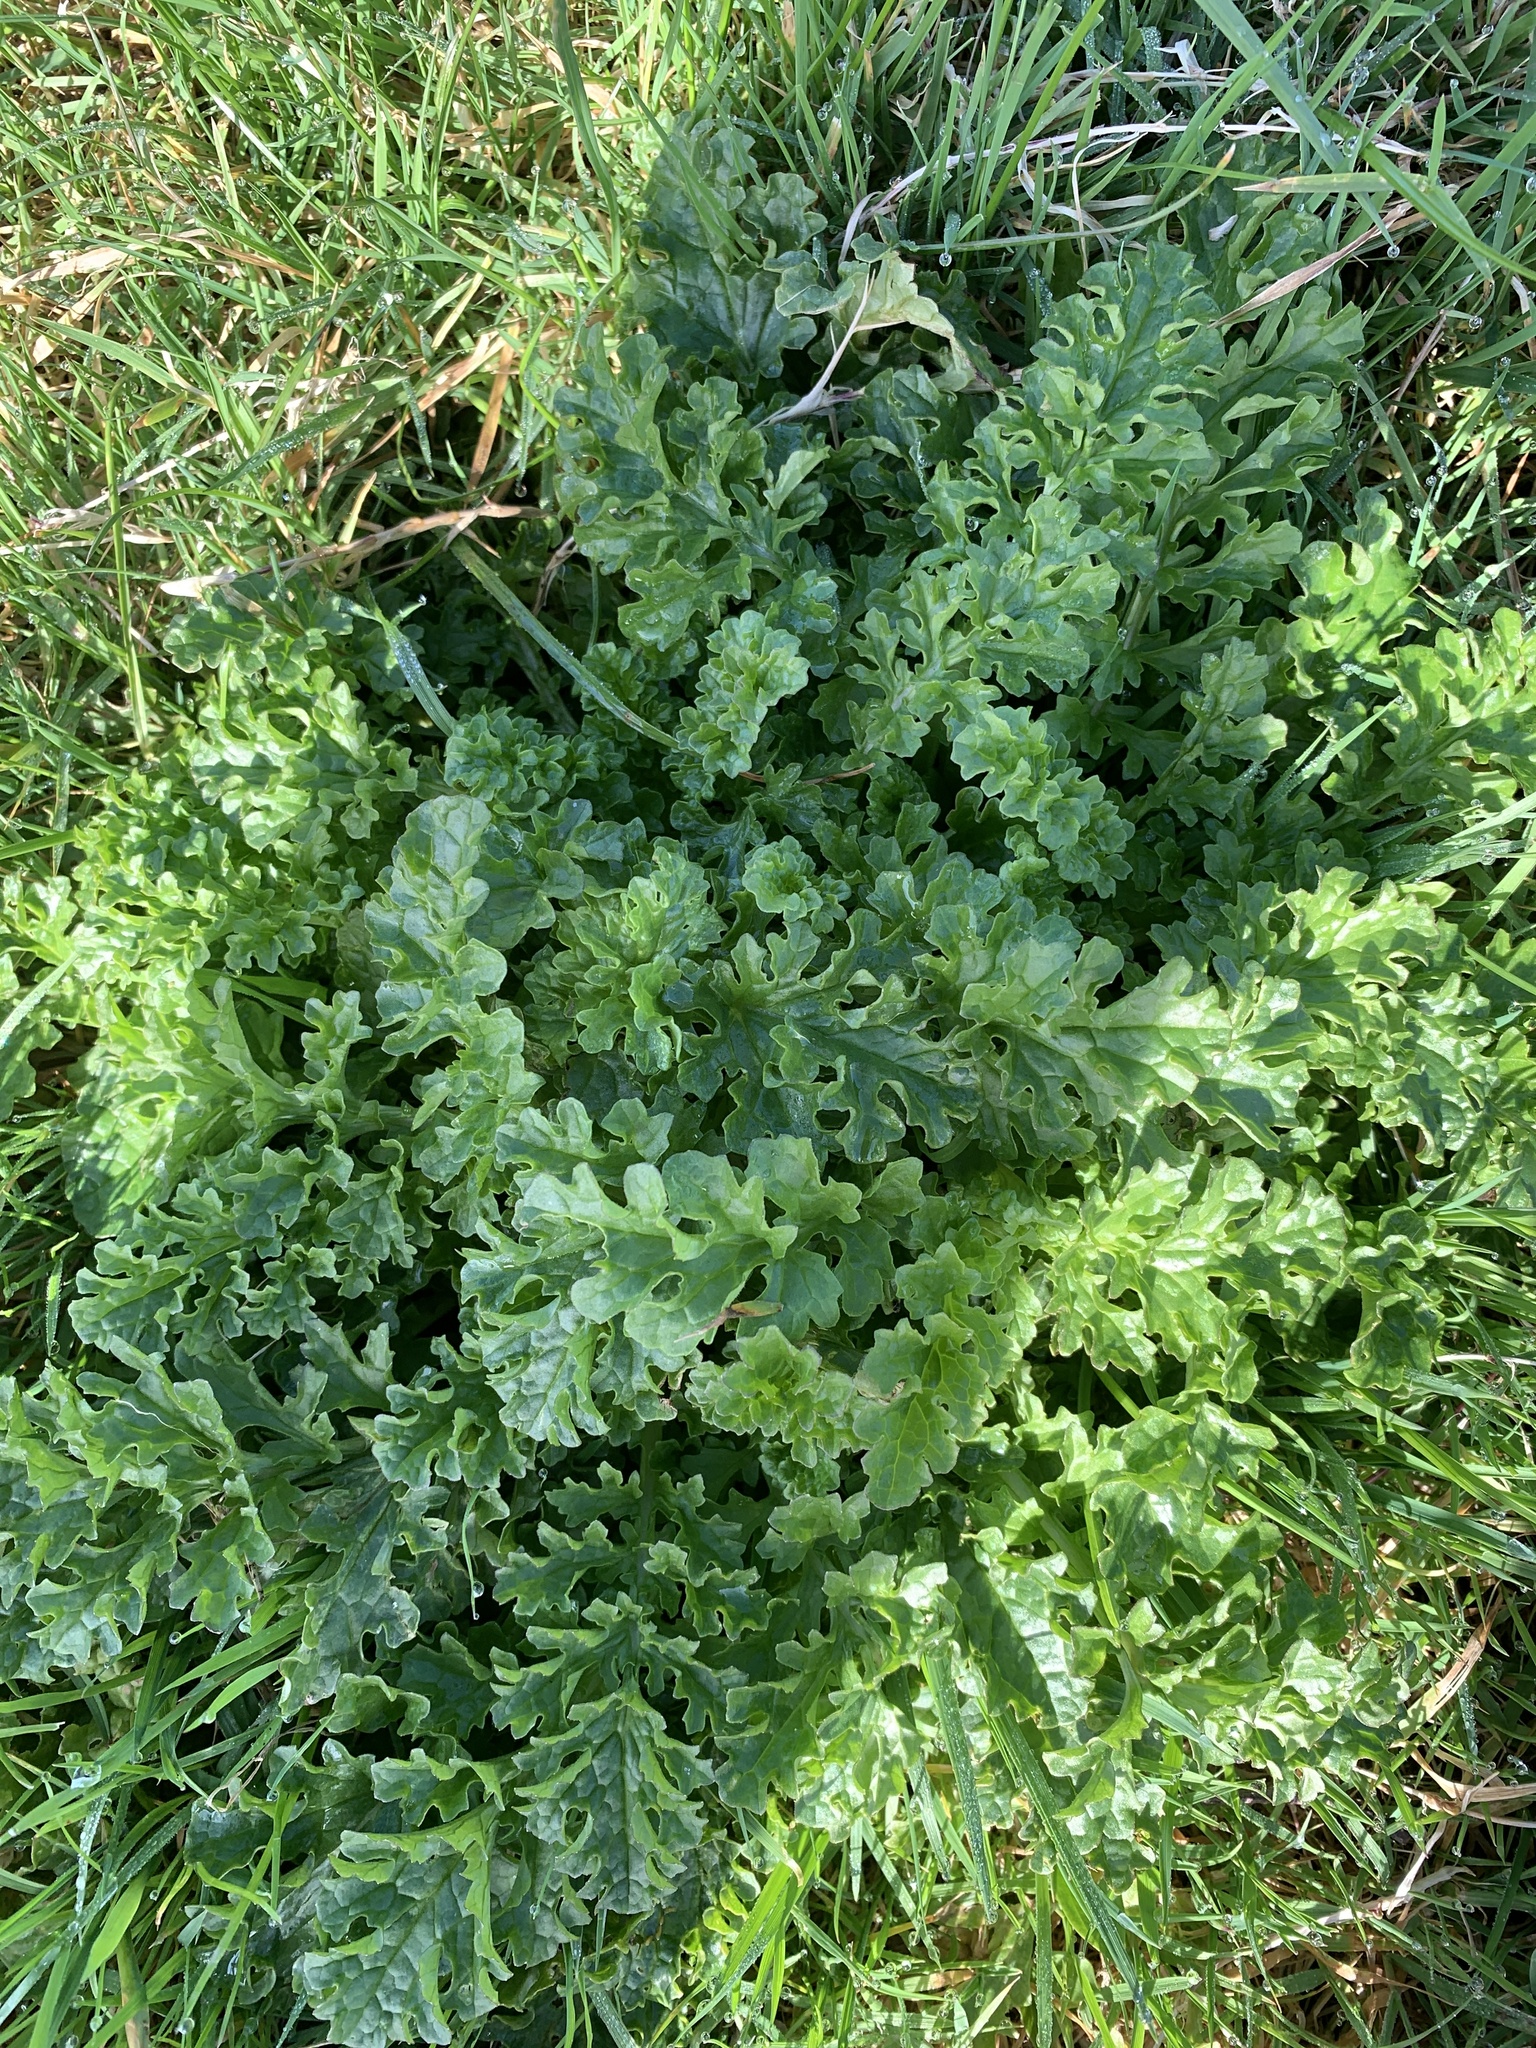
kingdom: Plantae
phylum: Tracheophyta
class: Magnoliopsida
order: Asterales
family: Asteraceae
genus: Jacobaea
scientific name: Jacobaea vulgaris
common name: Stinking willie
